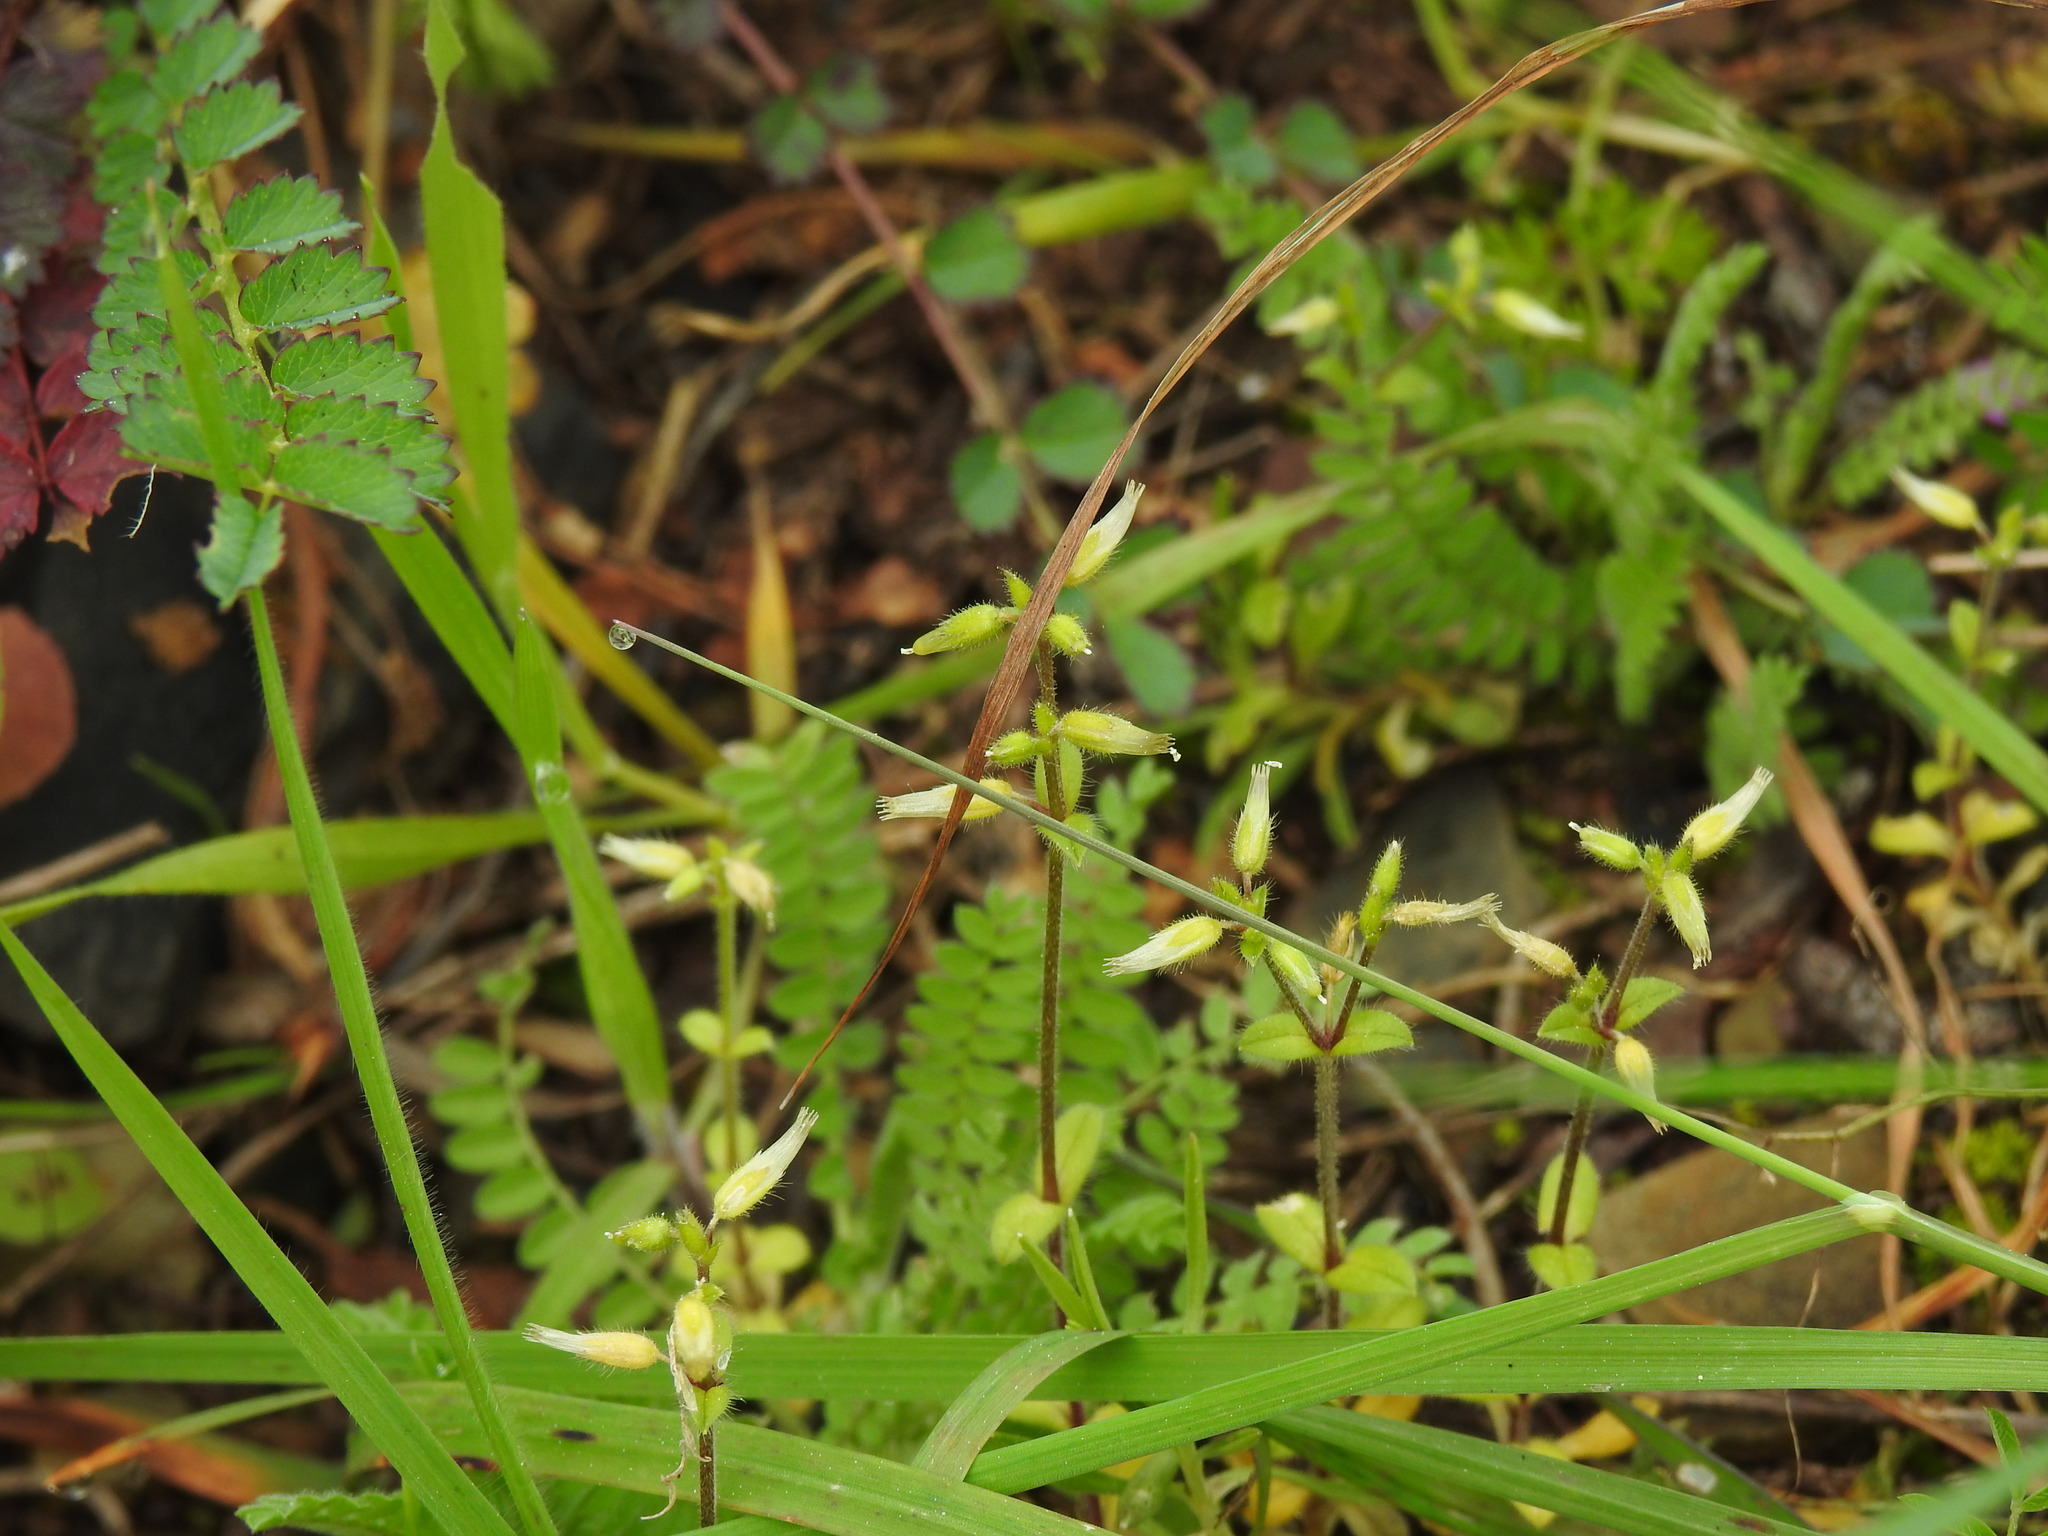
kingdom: Plantae
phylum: Tracheophyta
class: Magnoliopsida
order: Caryophyllales
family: Caryophyllaceae
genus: Cerastium
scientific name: Cerastium glomeratum
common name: Sticky chickweed
